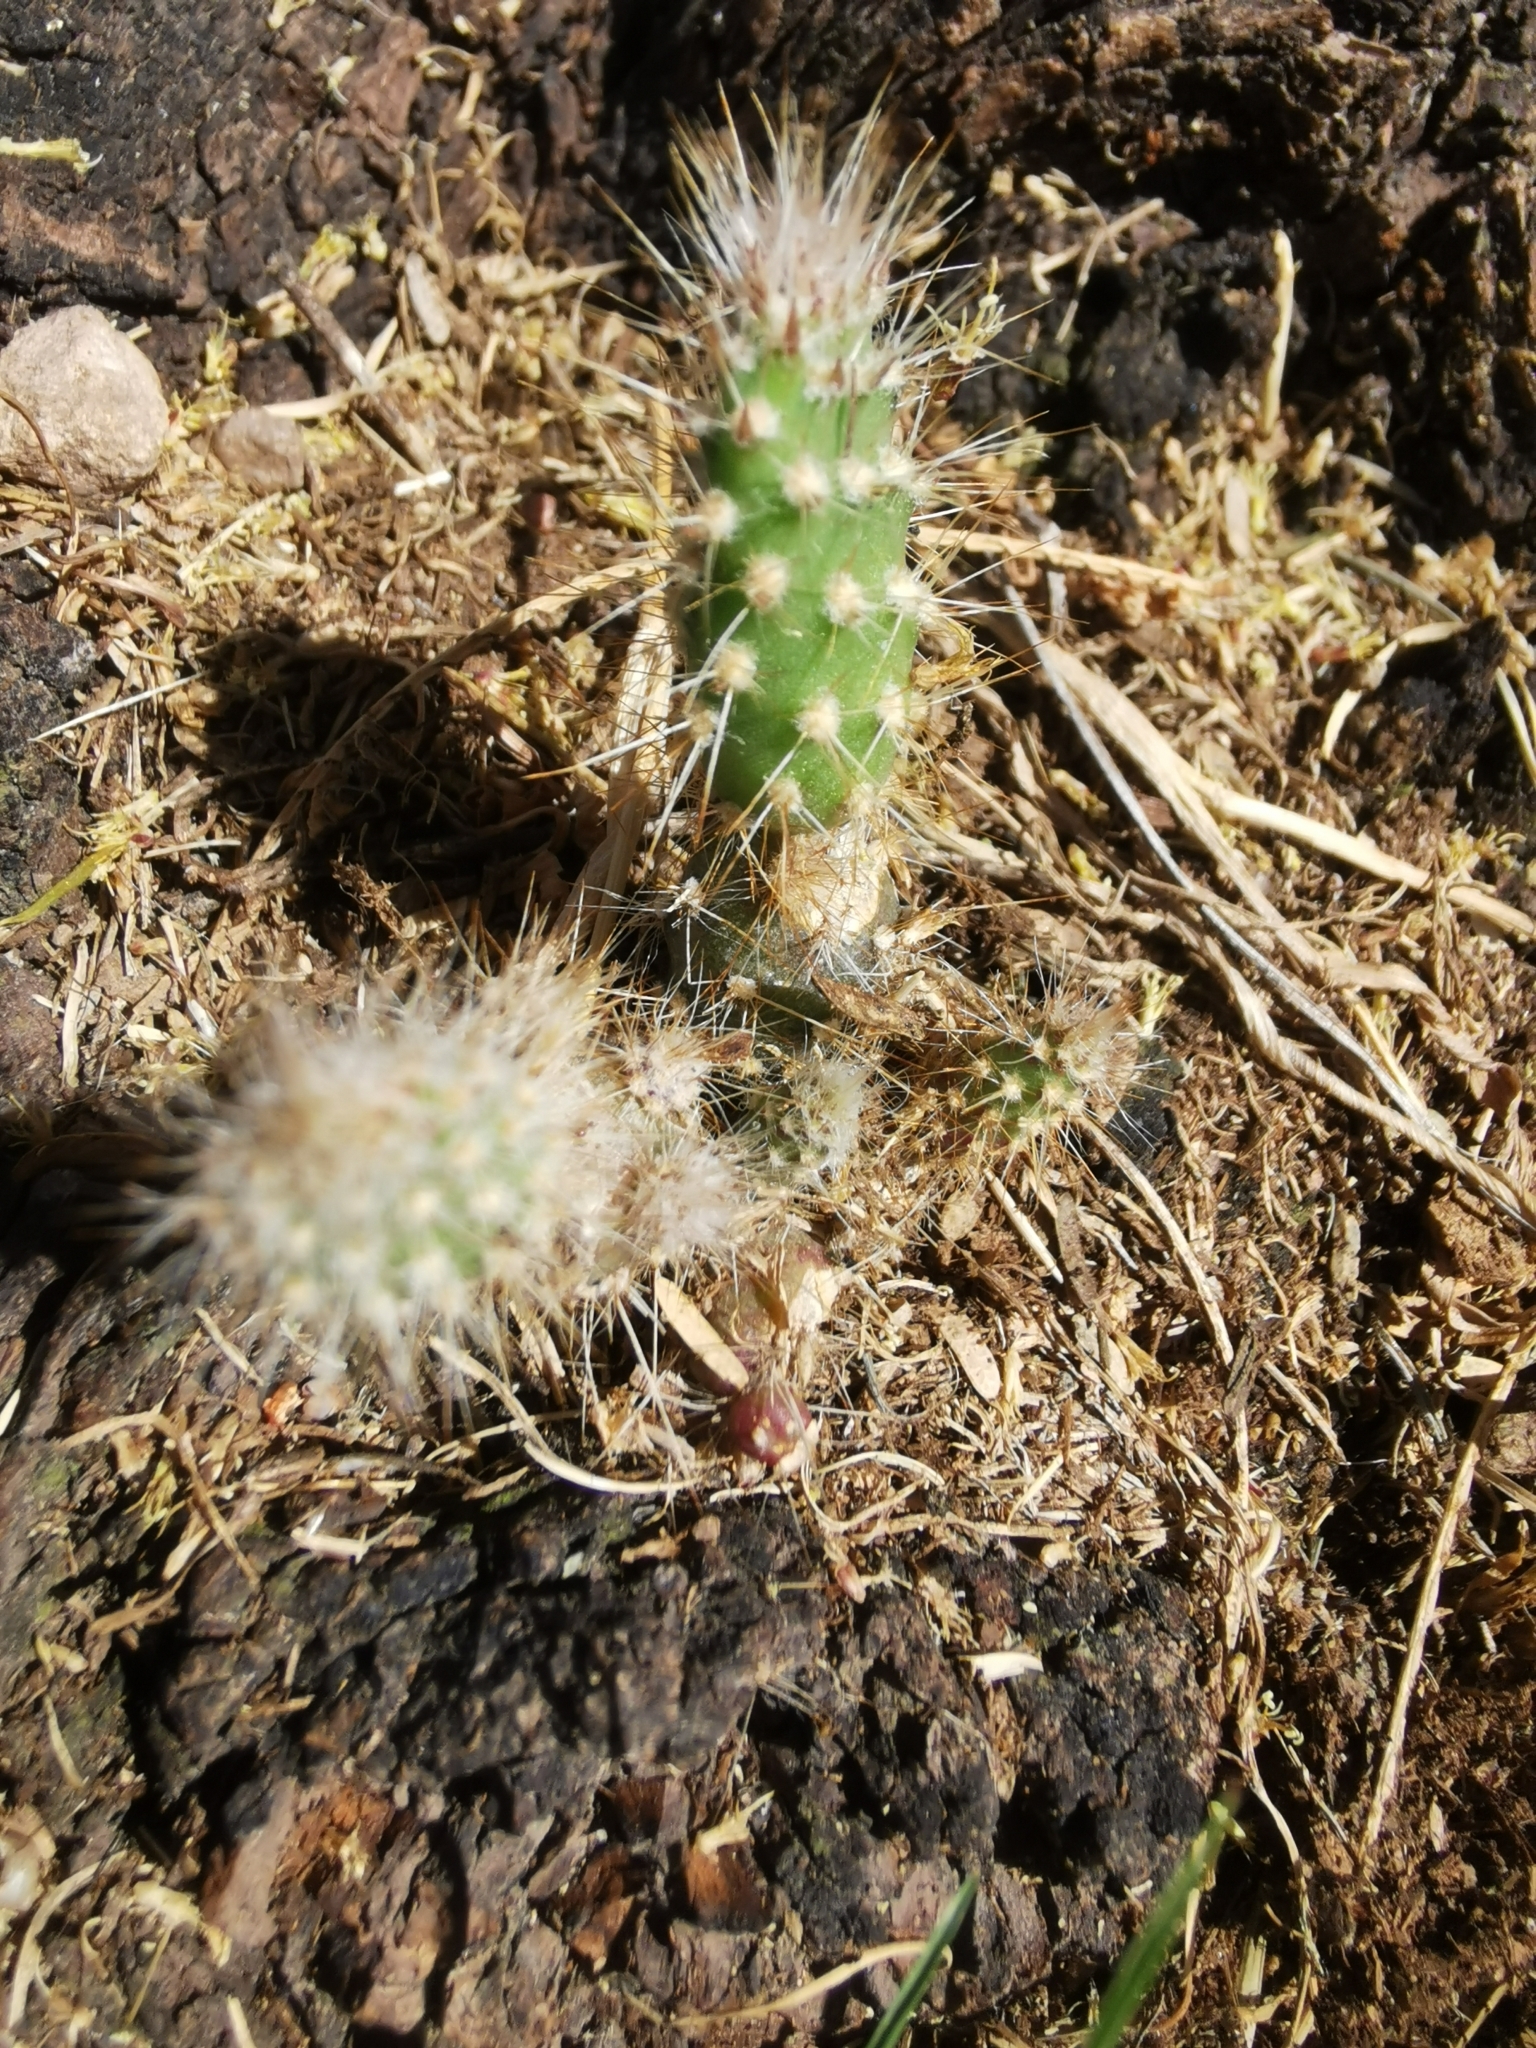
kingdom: Plantae
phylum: Tracheophyta
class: Magnoliopsida
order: Caryophyllales
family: Cactaceae
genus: Opuntia
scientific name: Opuntia leucotricha
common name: Arborescent pricklypear
